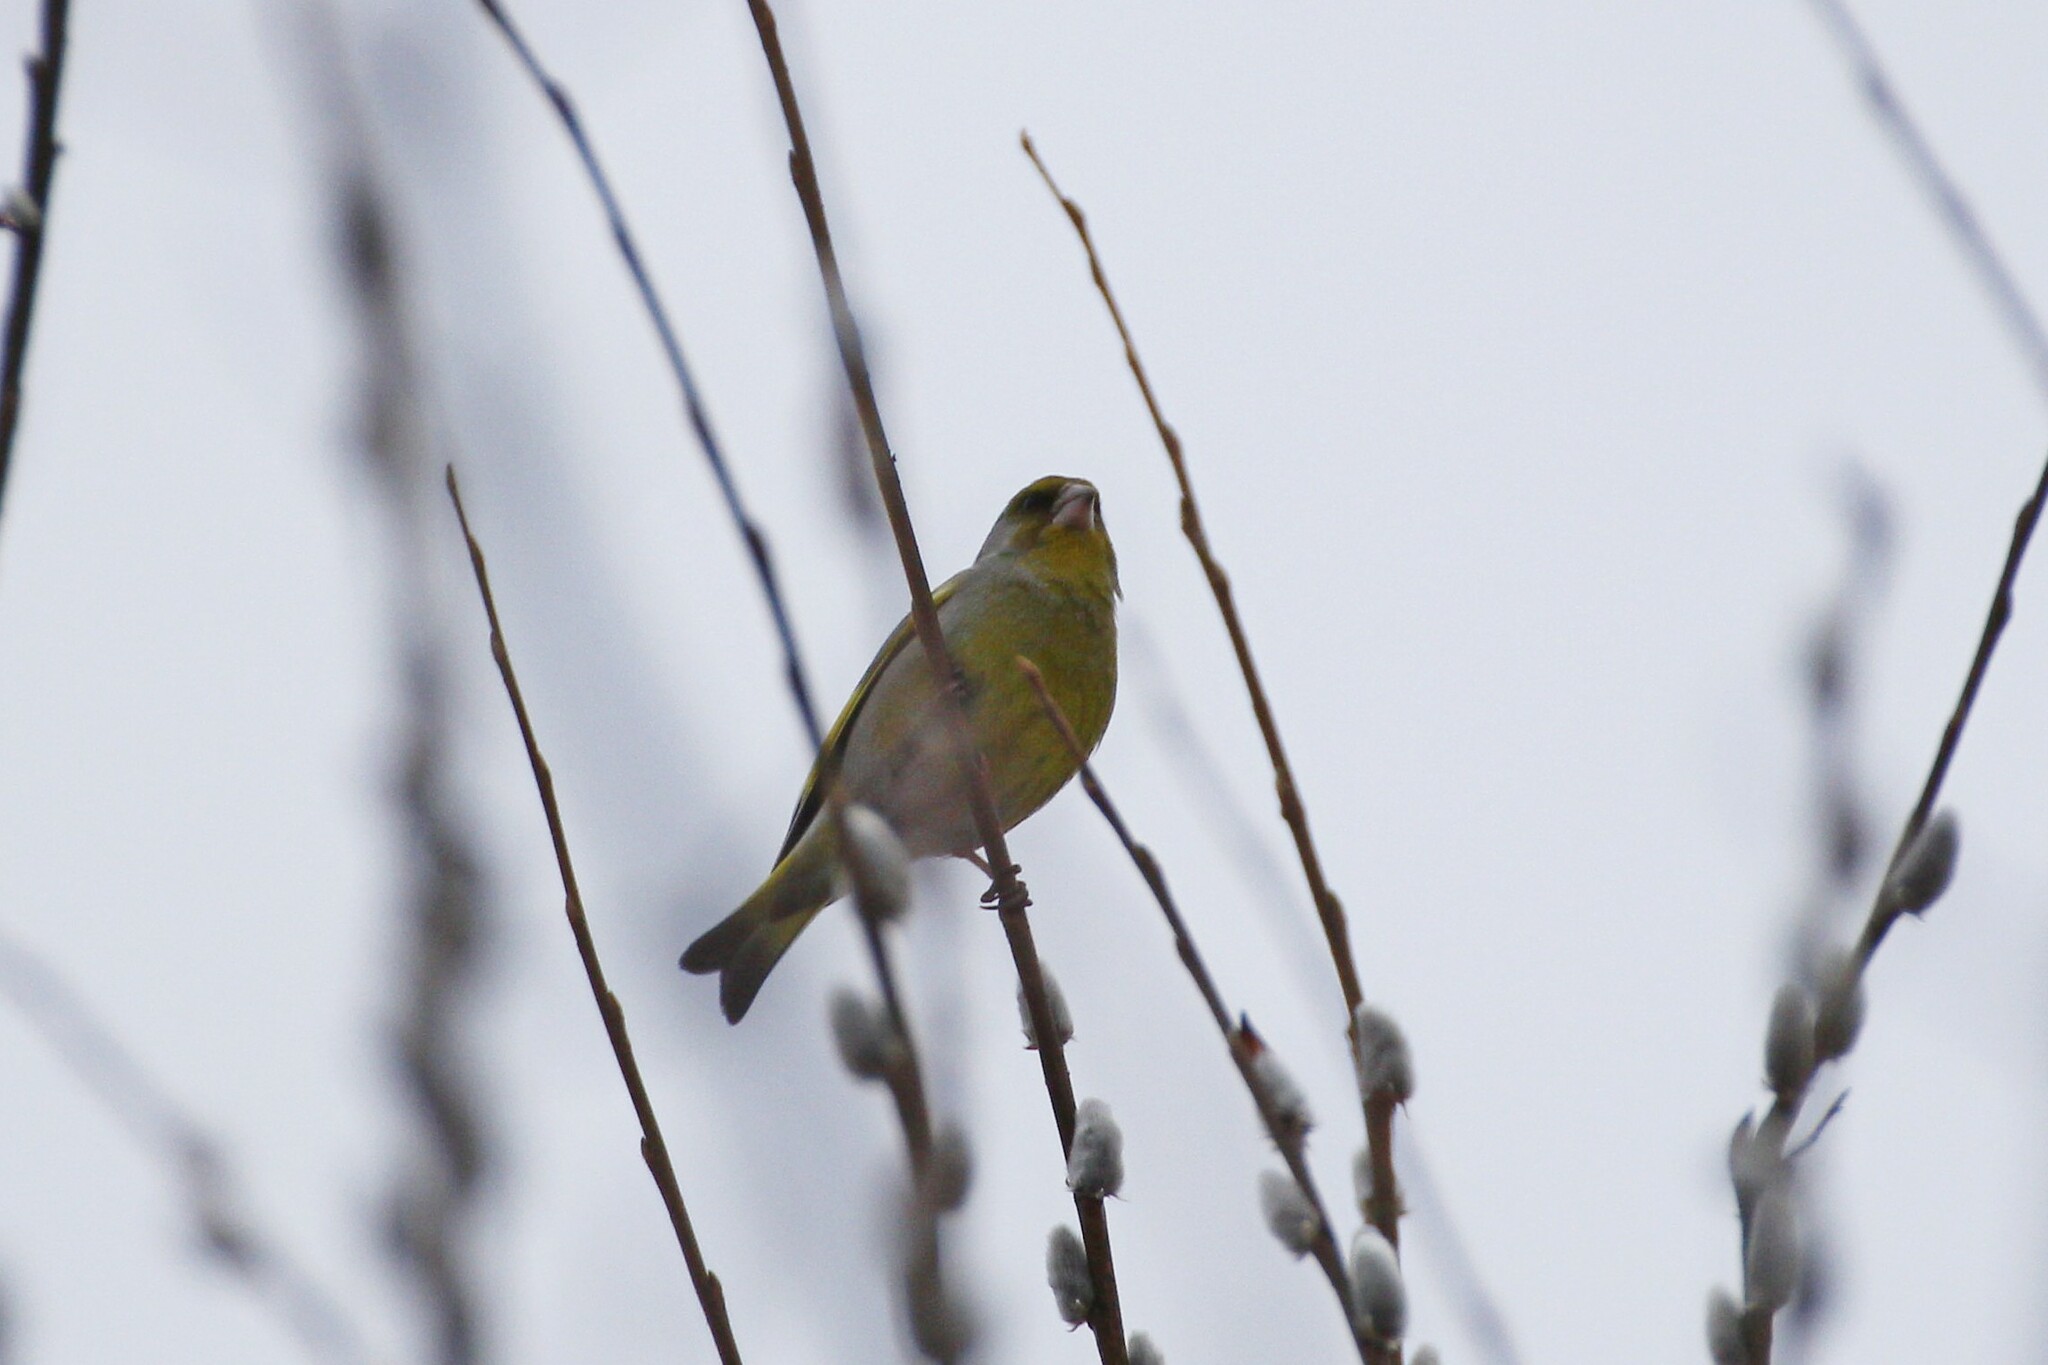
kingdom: Plantae
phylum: Tracheophyta
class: Liliopsida
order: Poales
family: Poaceae
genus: Chloris
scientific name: Chloris chloris
